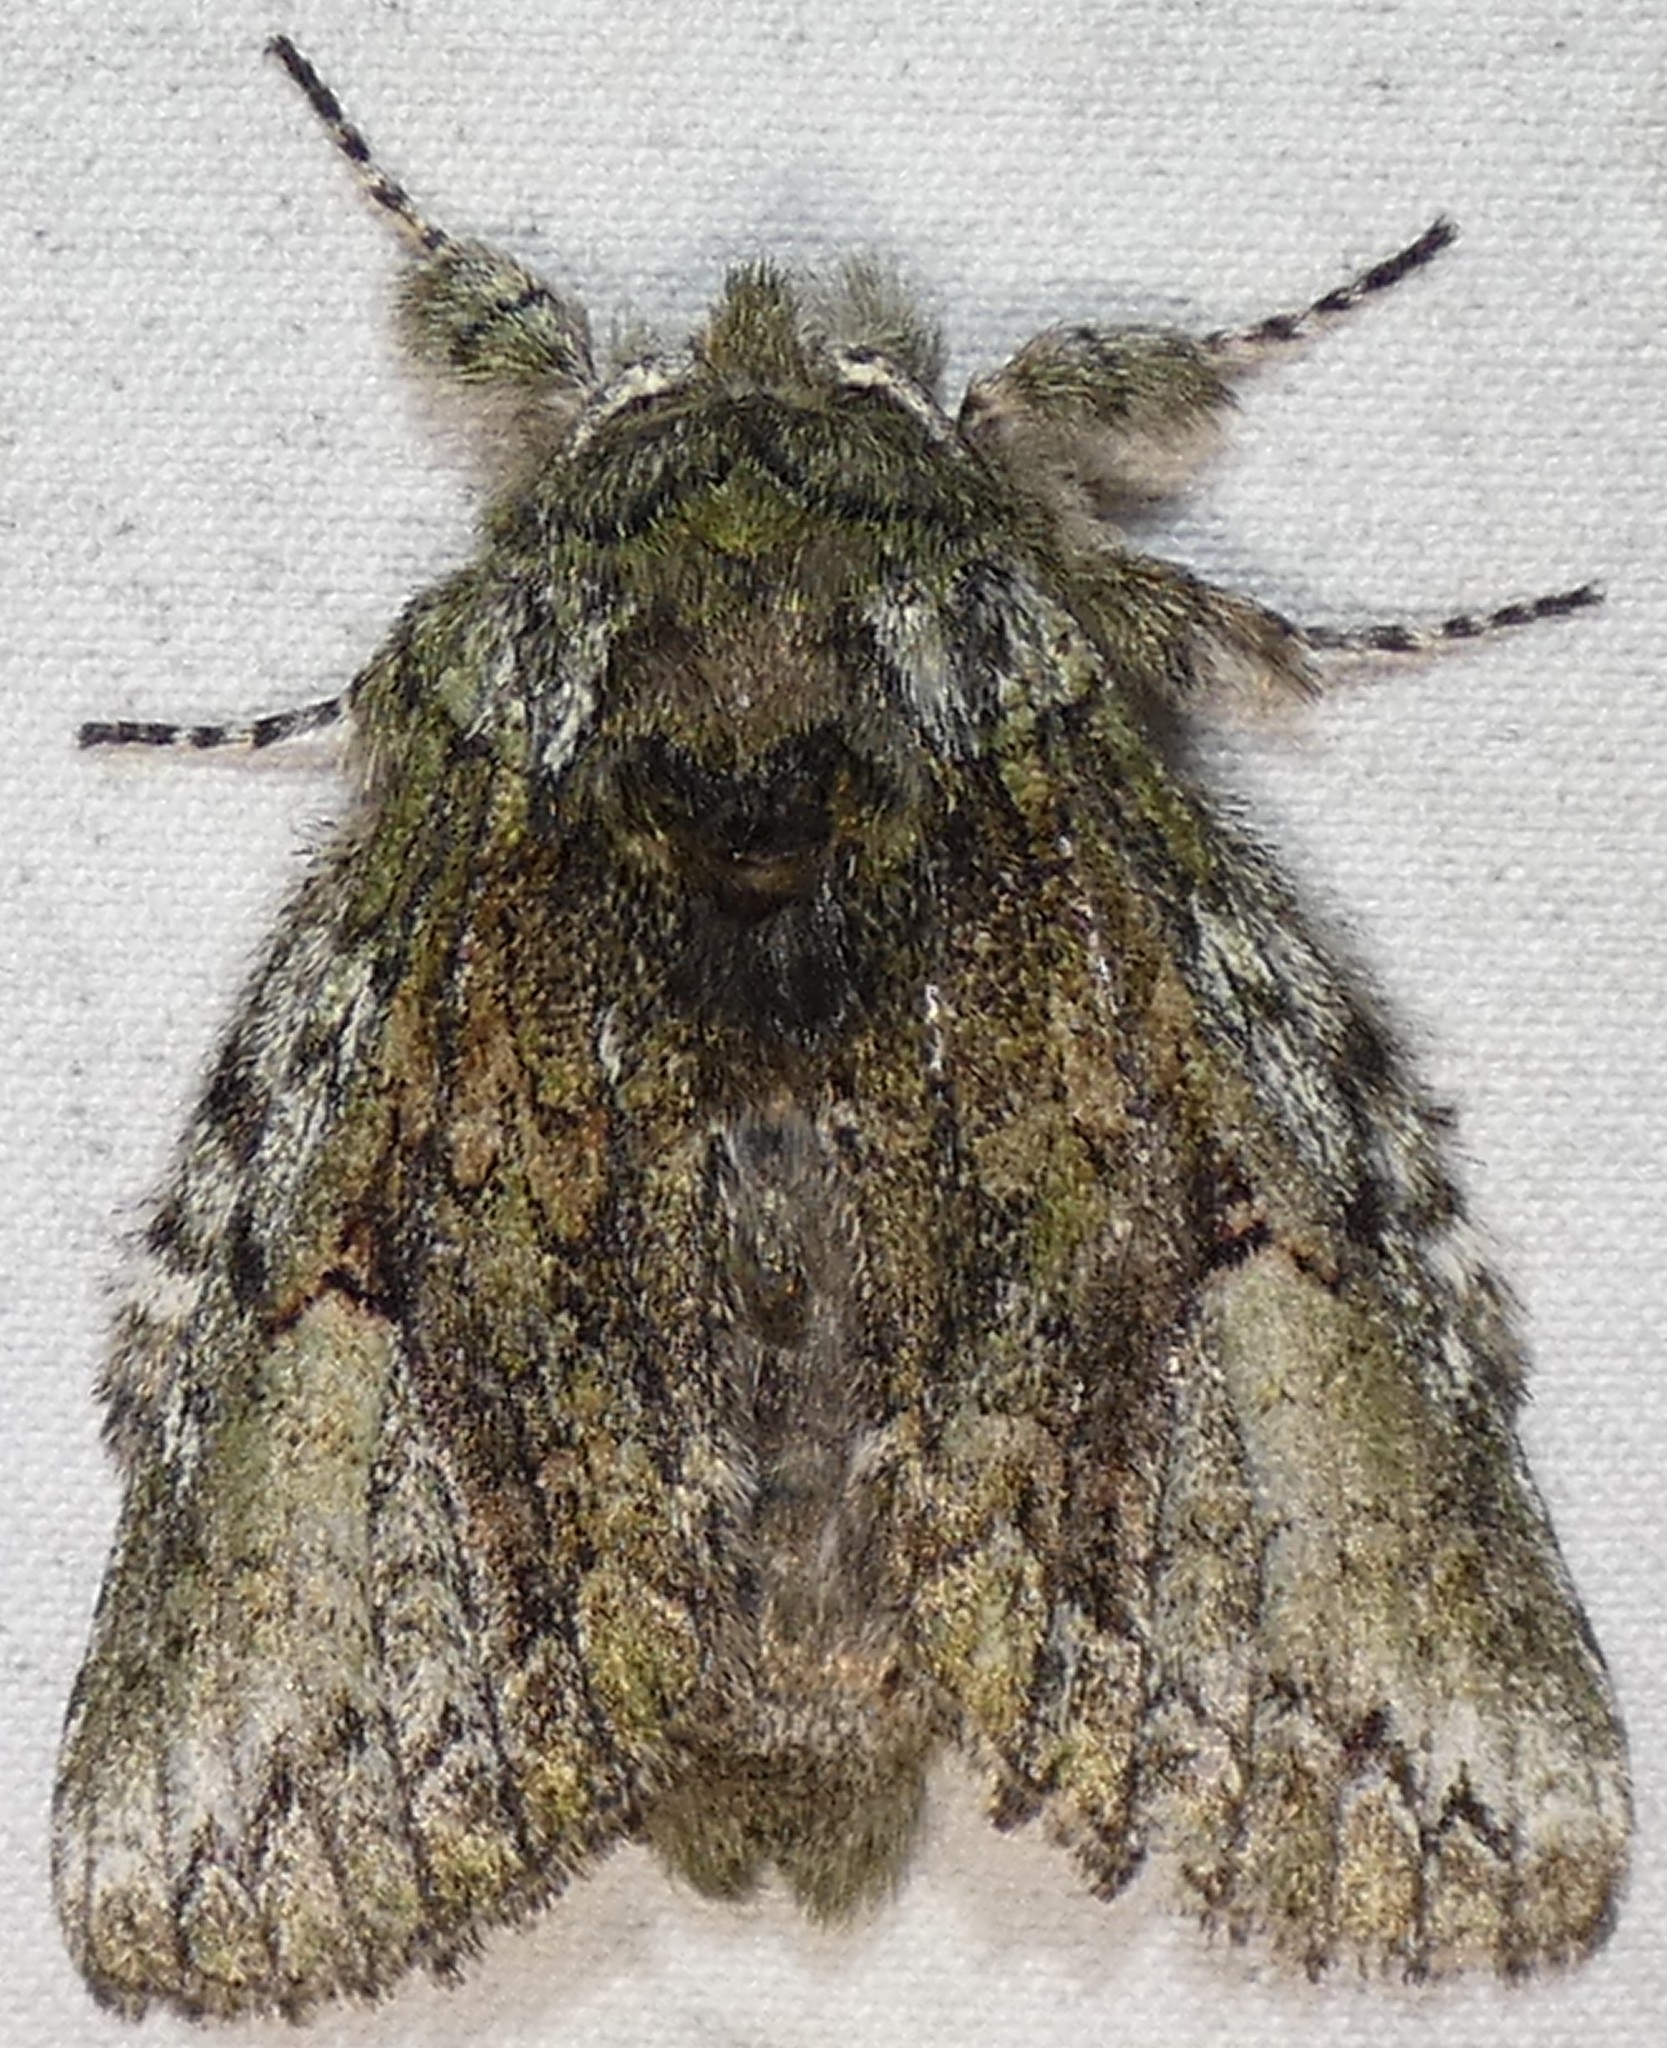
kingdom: Animalia
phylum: Arthropoda
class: Insecta
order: Lepidoptera
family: Notodontidae
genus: Heterocampa
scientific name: Heterocampa
